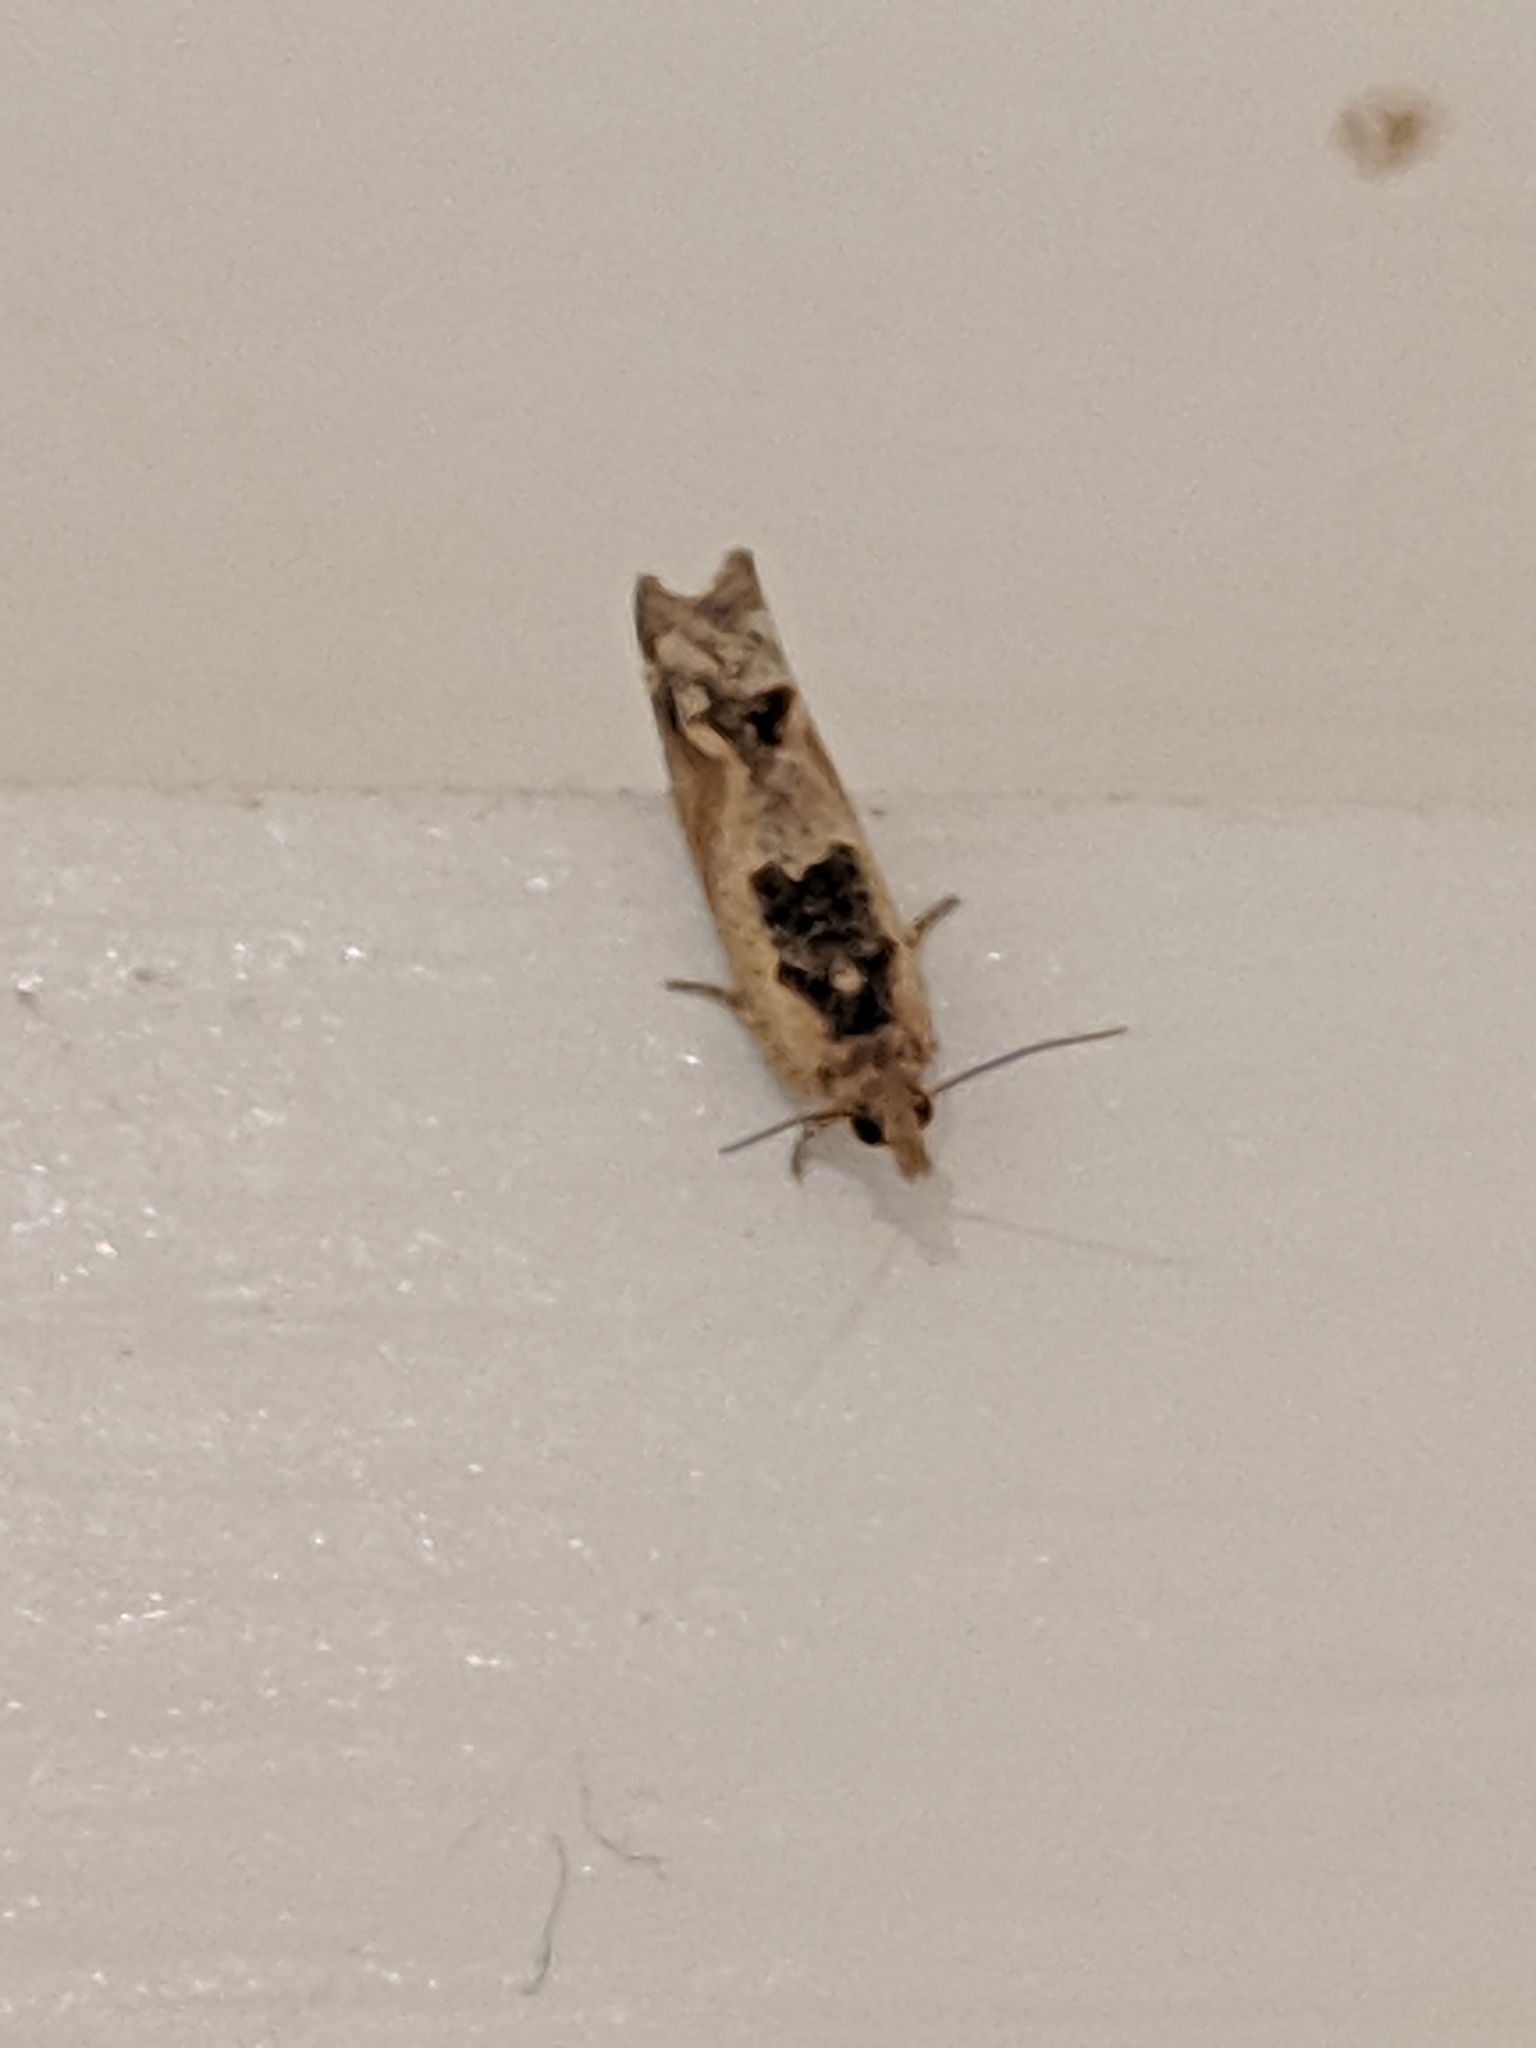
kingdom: Animalia
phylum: Arthropoda
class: Insecta
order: Lepidoptera
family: Tortricidae
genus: Crocidosema
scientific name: Crocidosema plebejana
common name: Southern bell
